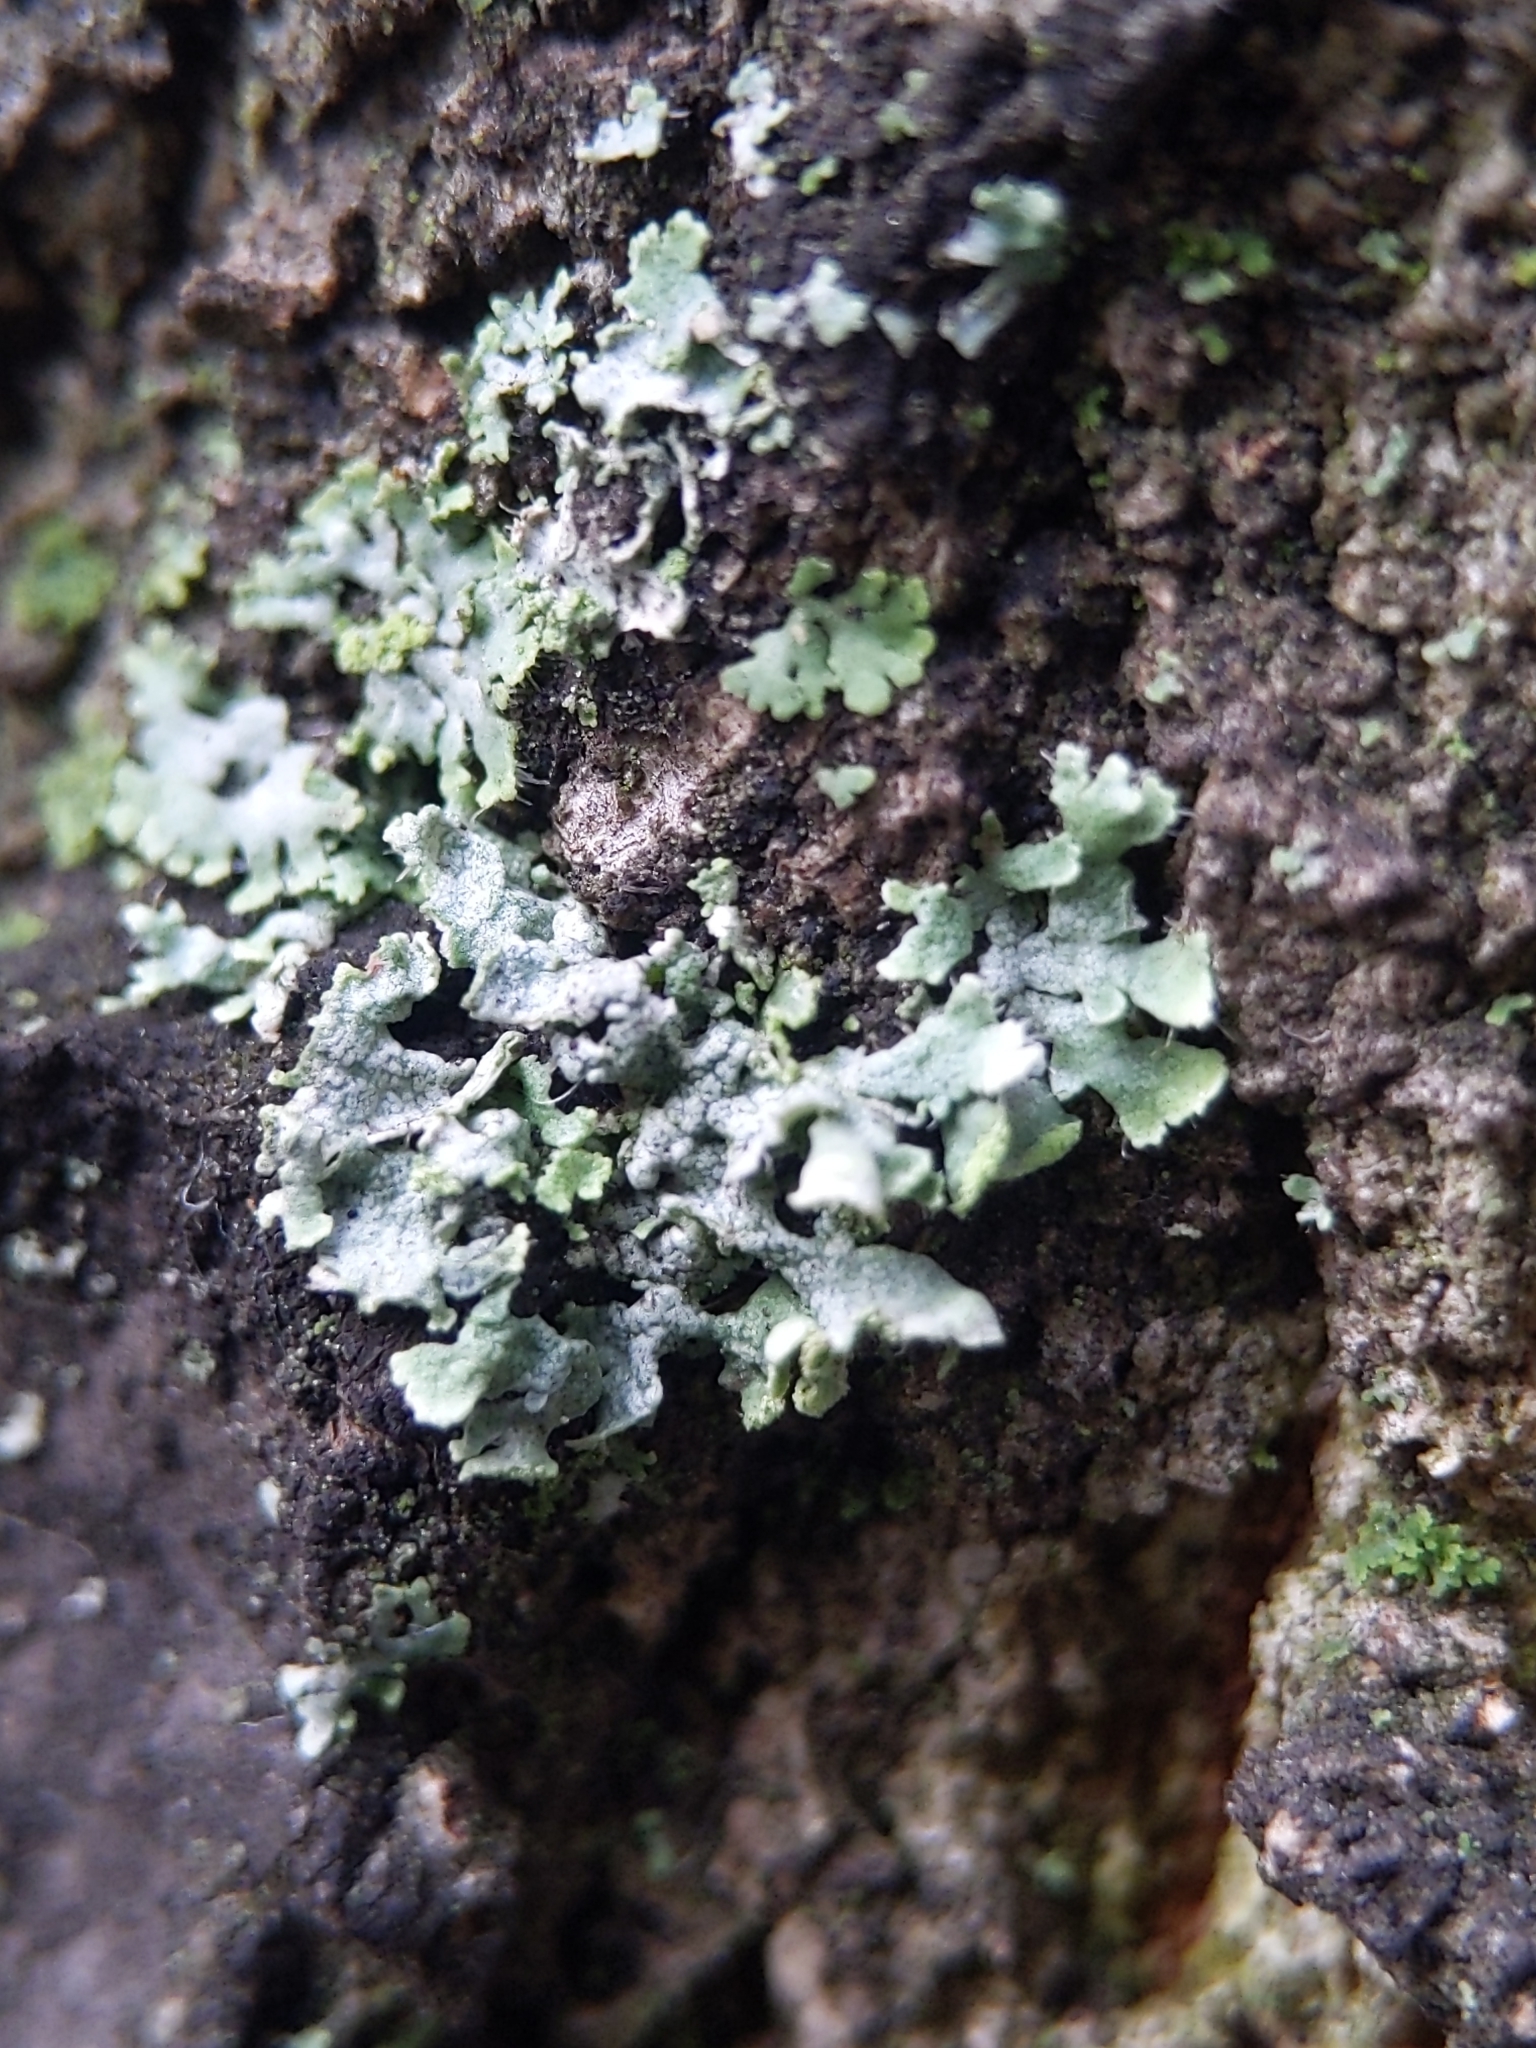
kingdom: Fungi
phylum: Ascomycota
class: Lecanoromycetes
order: Caliciales
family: Physciaceae
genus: Physcia
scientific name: Physcia adscendens
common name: Hooded rosette lichen
